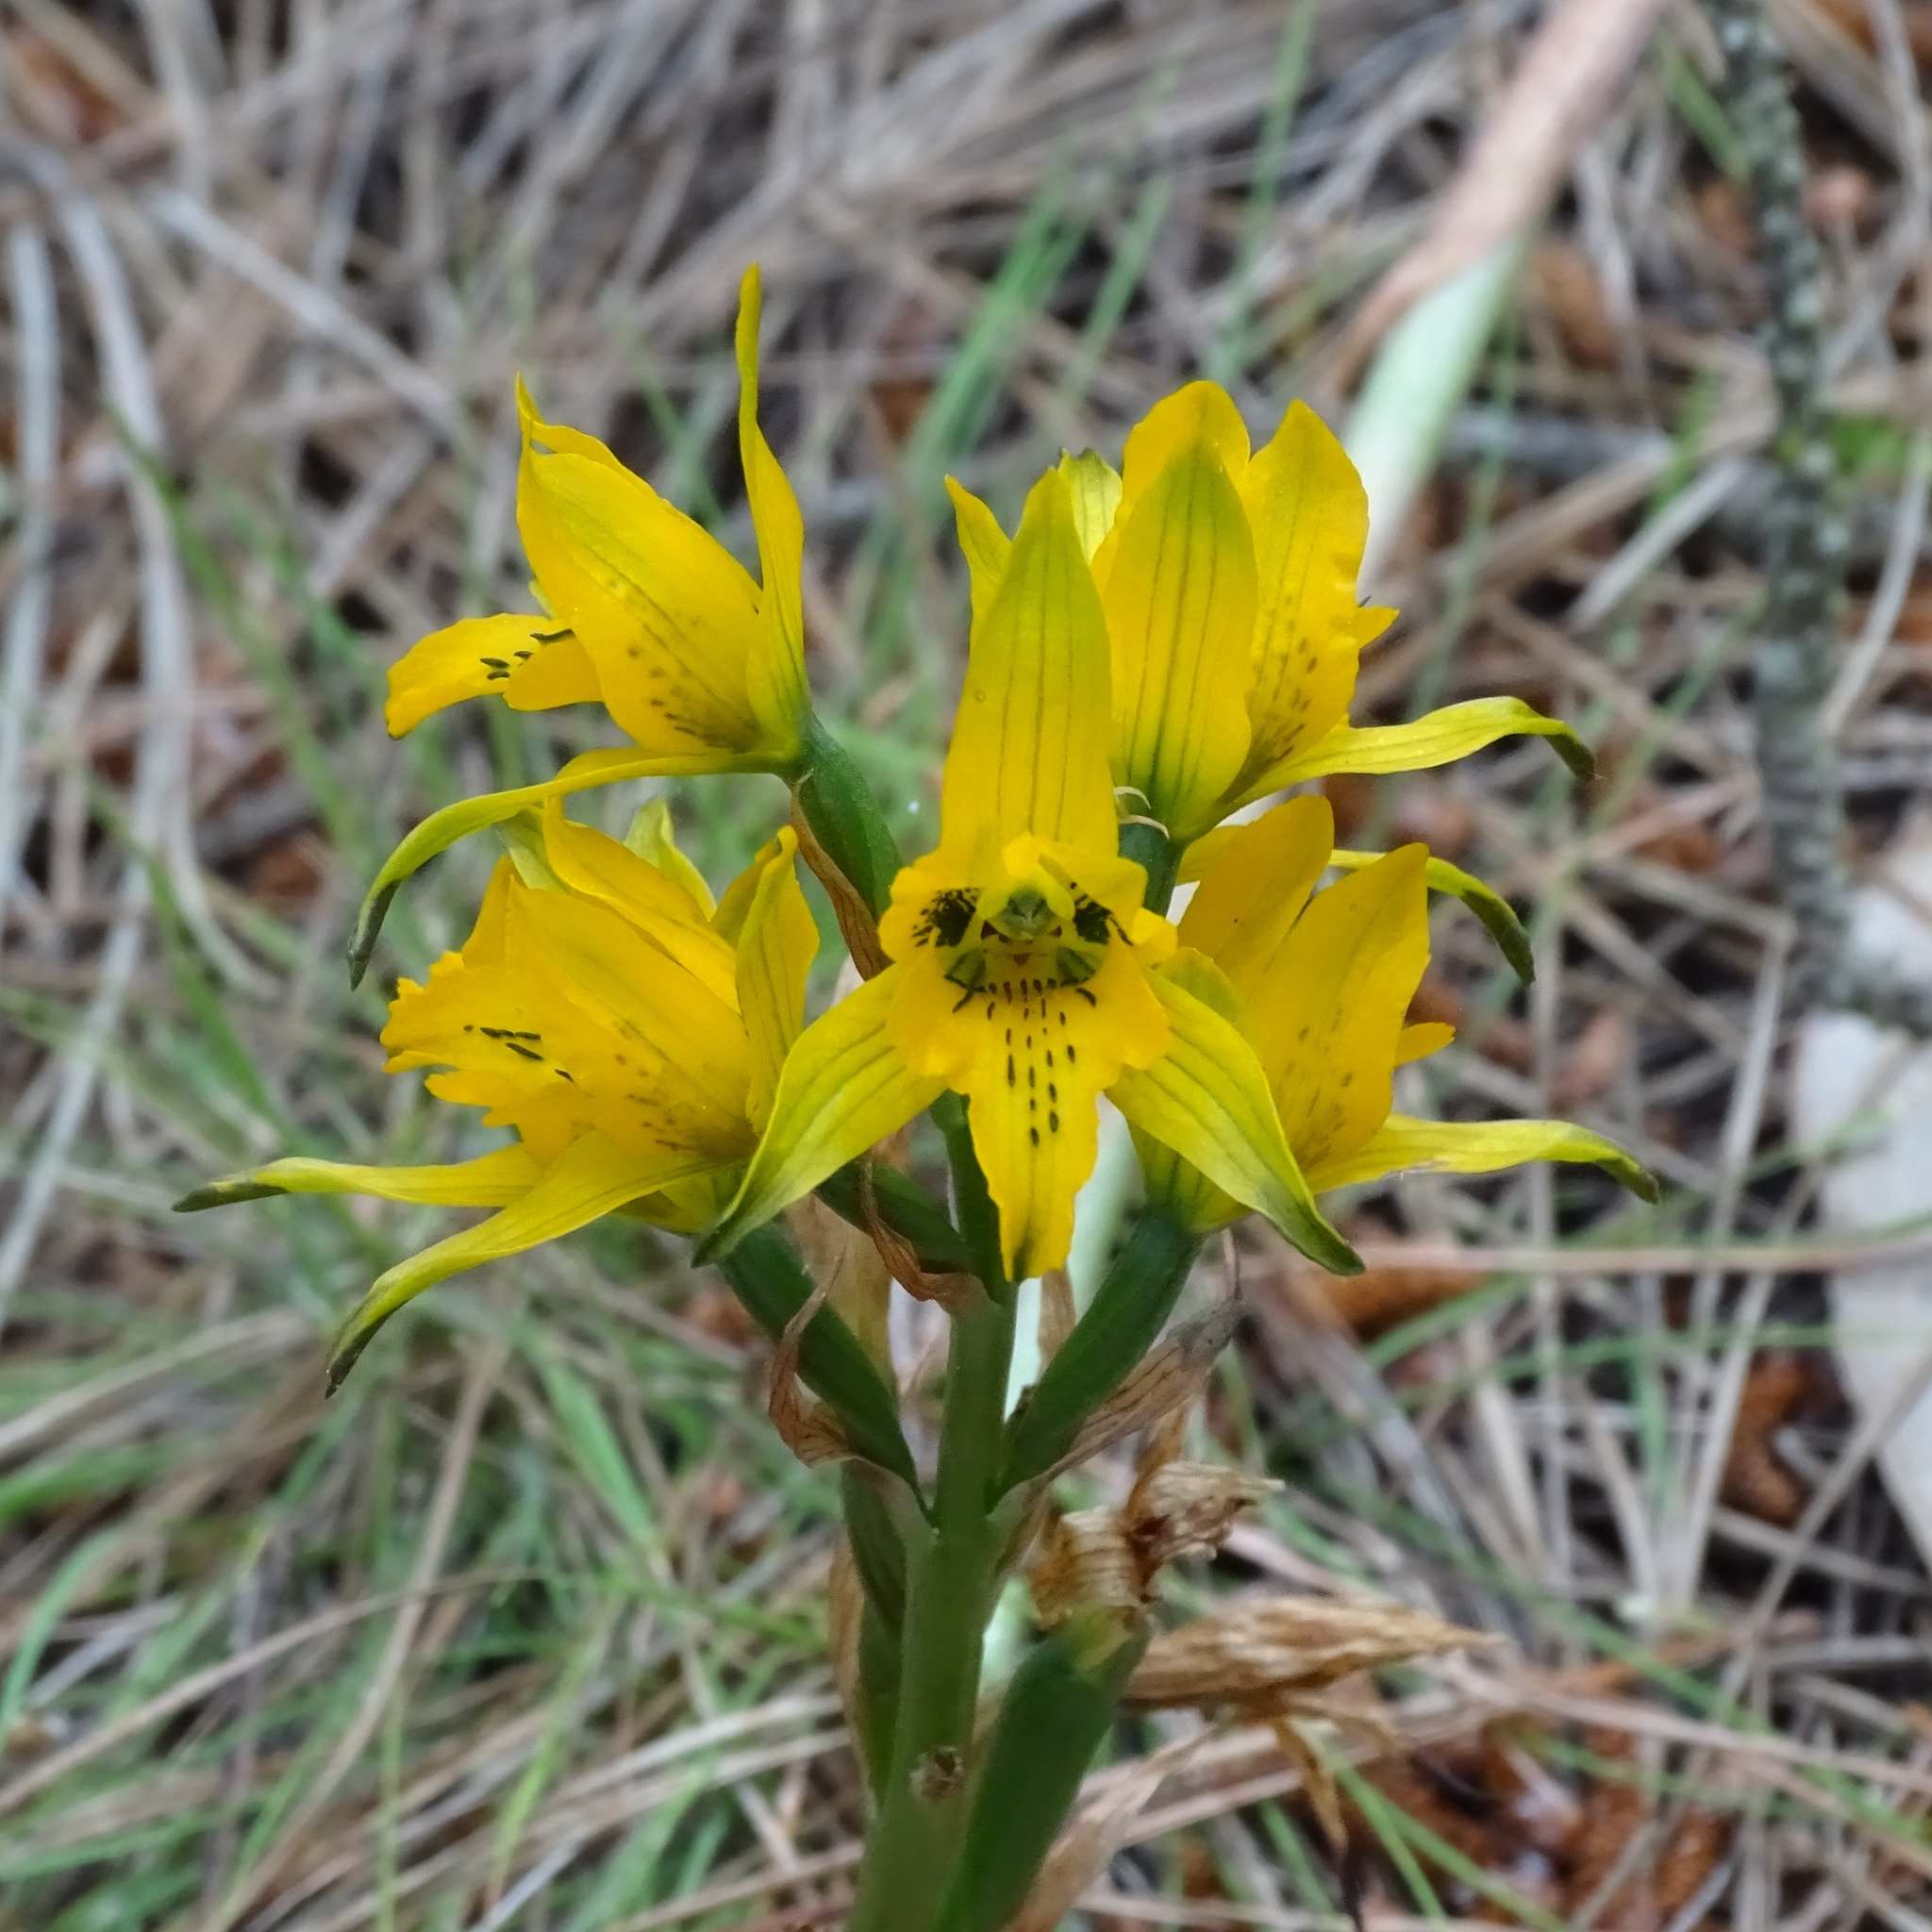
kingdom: Plantae
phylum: Tracheophyta
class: Liliopsida
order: Asparagales
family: Orchidaceae
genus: Chloraea
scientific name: Chloraea gavilu
